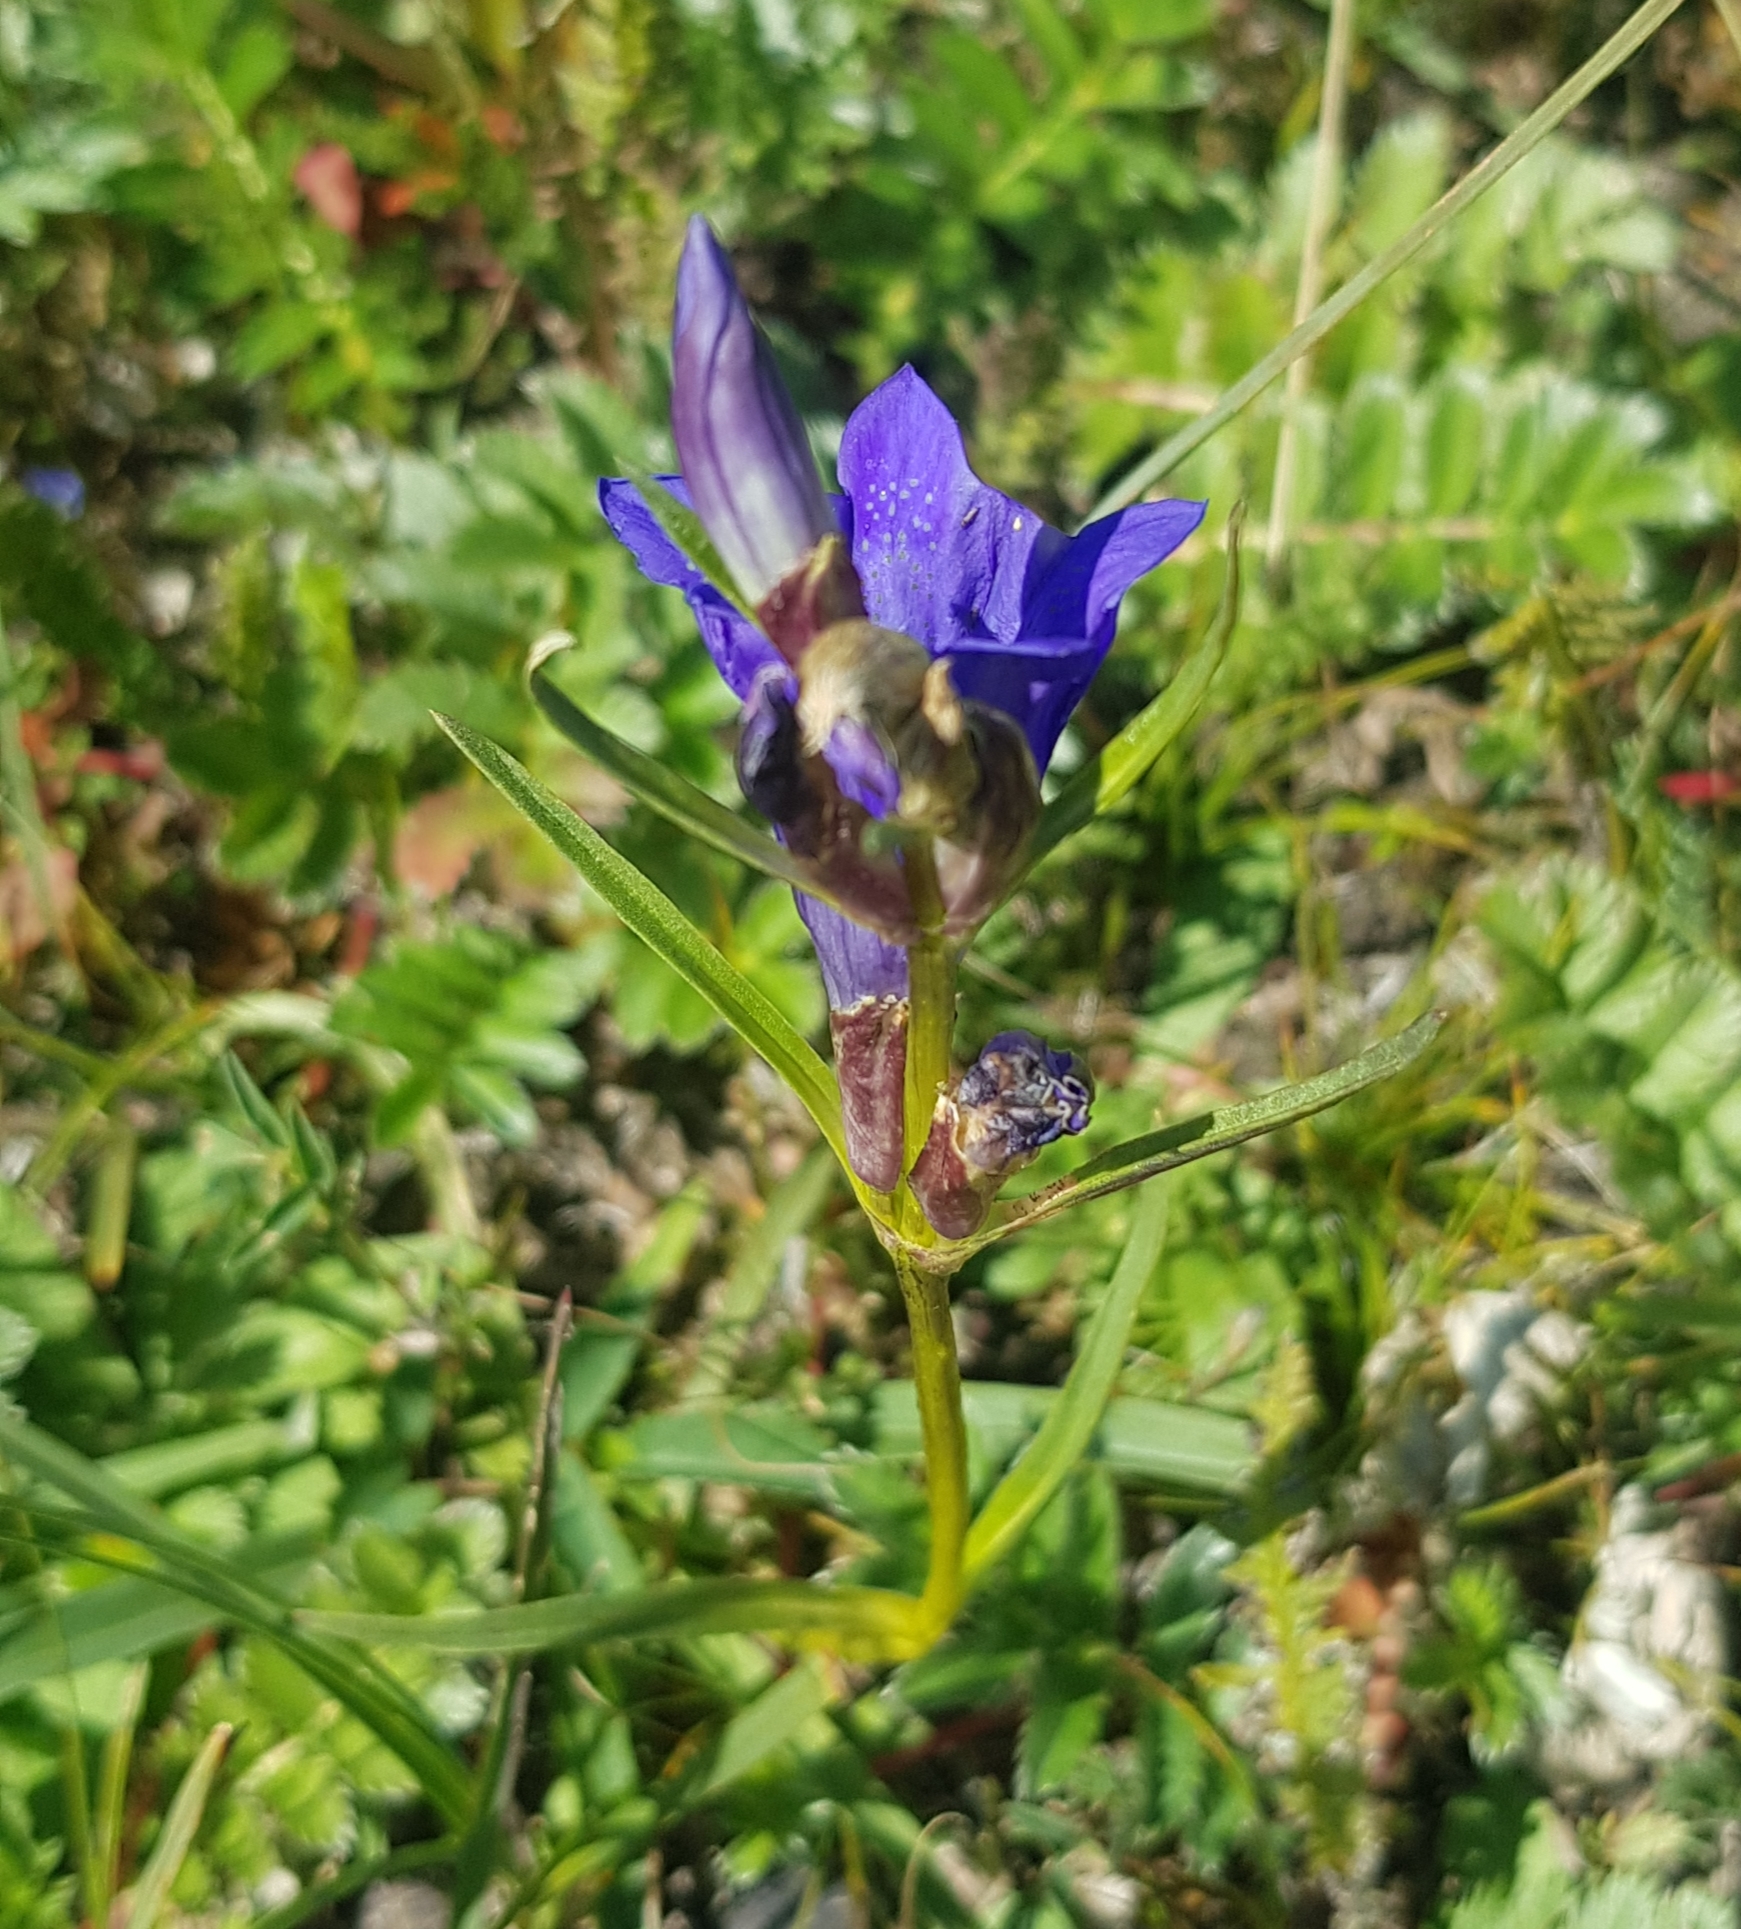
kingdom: Plantae
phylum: Tracheophyta
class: Magnoliopsida
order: Gentianales
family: Gentianaceae
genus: Gentiana
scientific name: Gentiana decumbens
